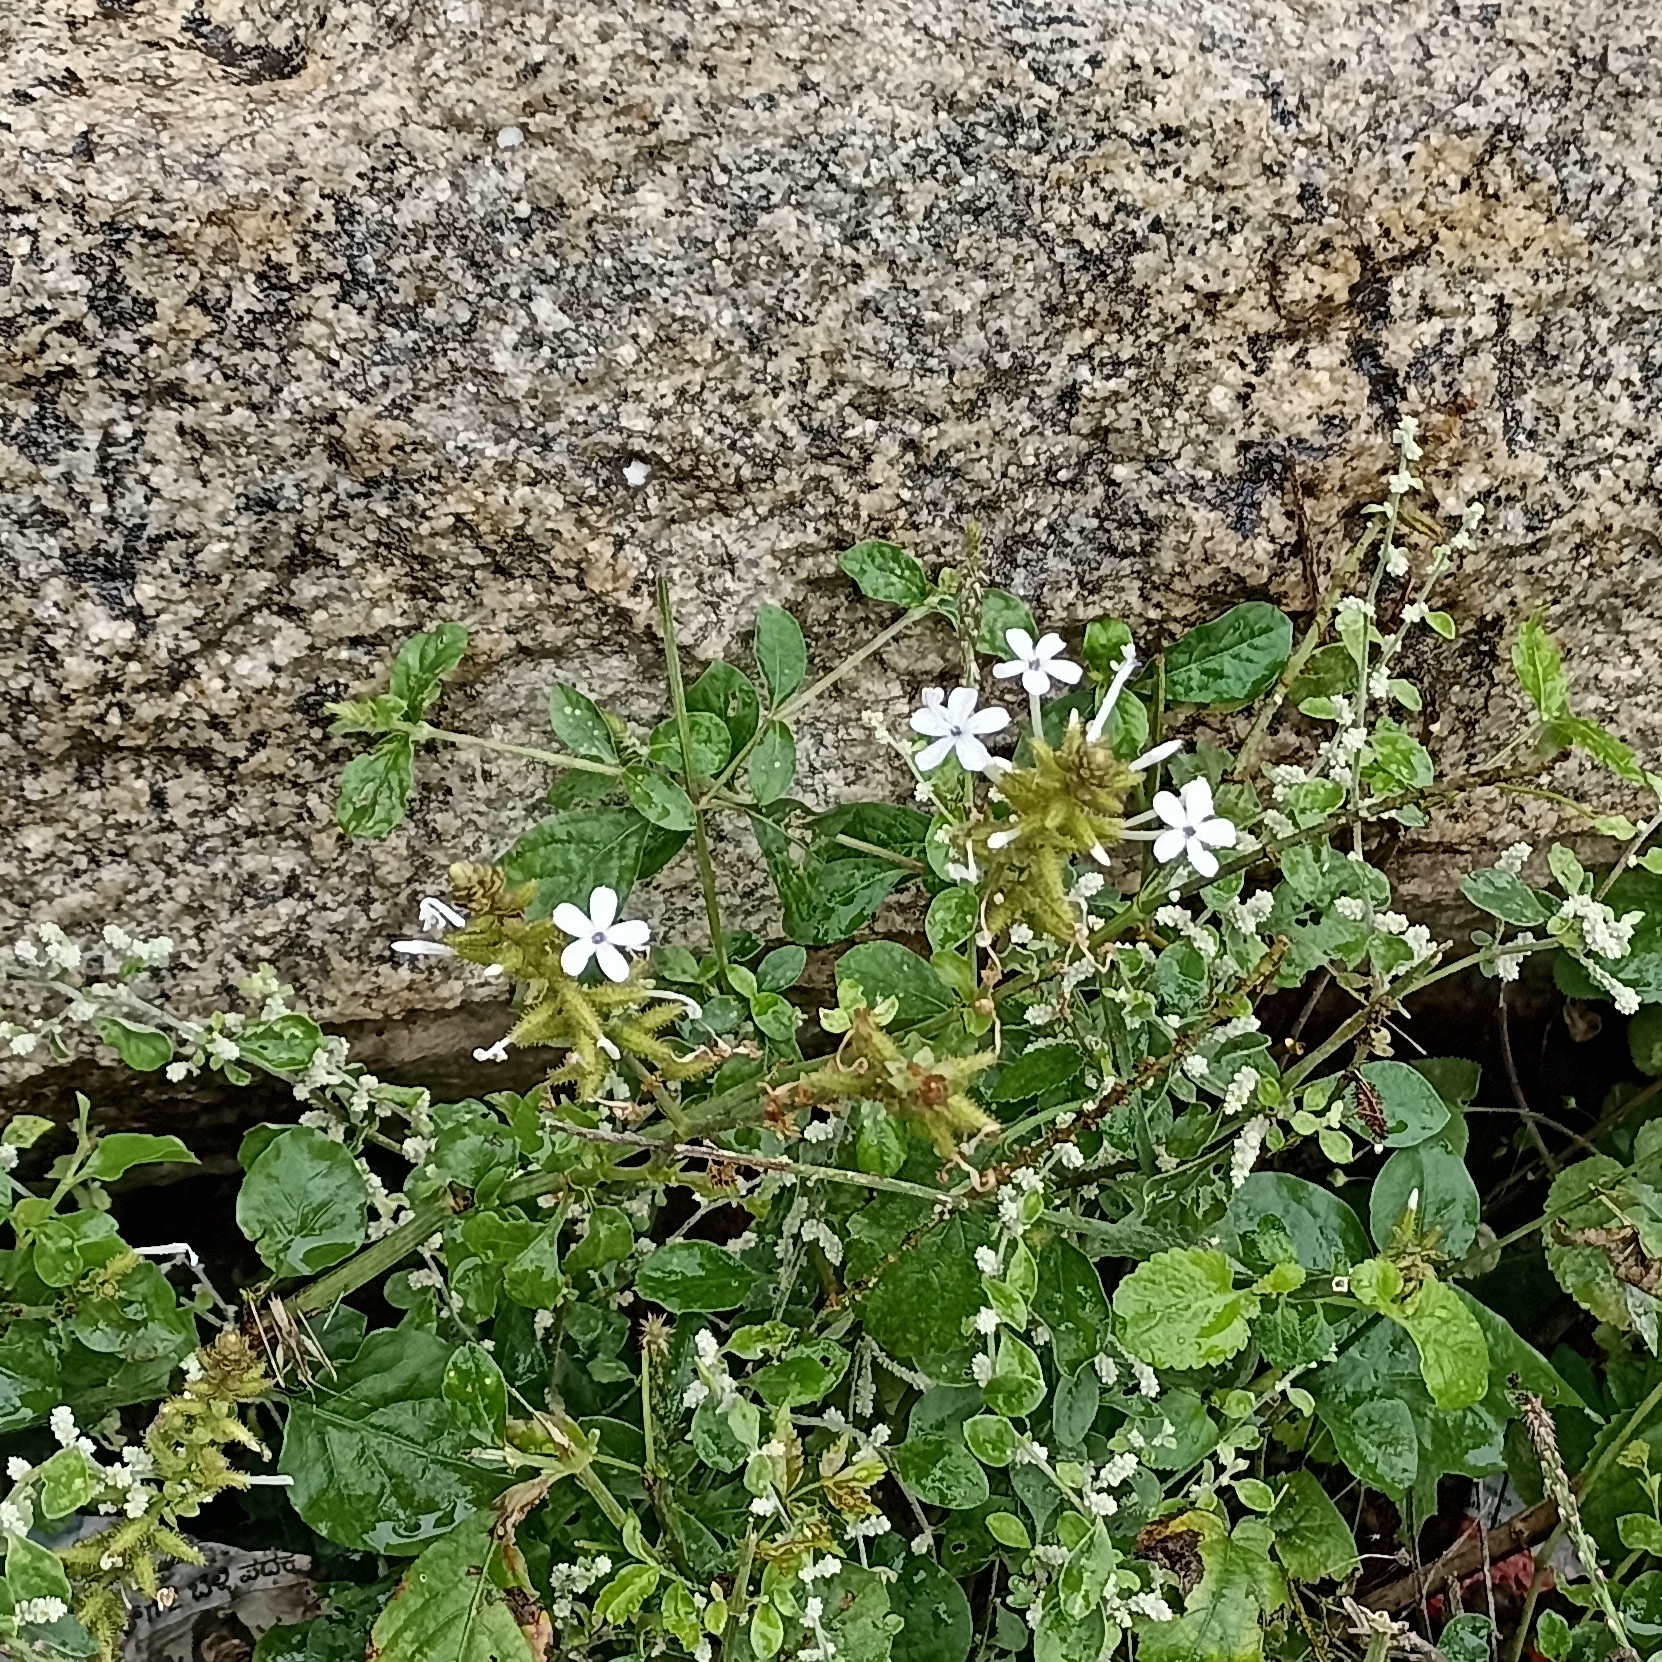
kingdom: Plantae
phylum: Tracheophyta
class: Magnoliopsida
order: Caryophyllales
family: Plumbaginaceae
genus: Plumbago
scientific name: Plumbago zeylanica
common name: Doctorbush
